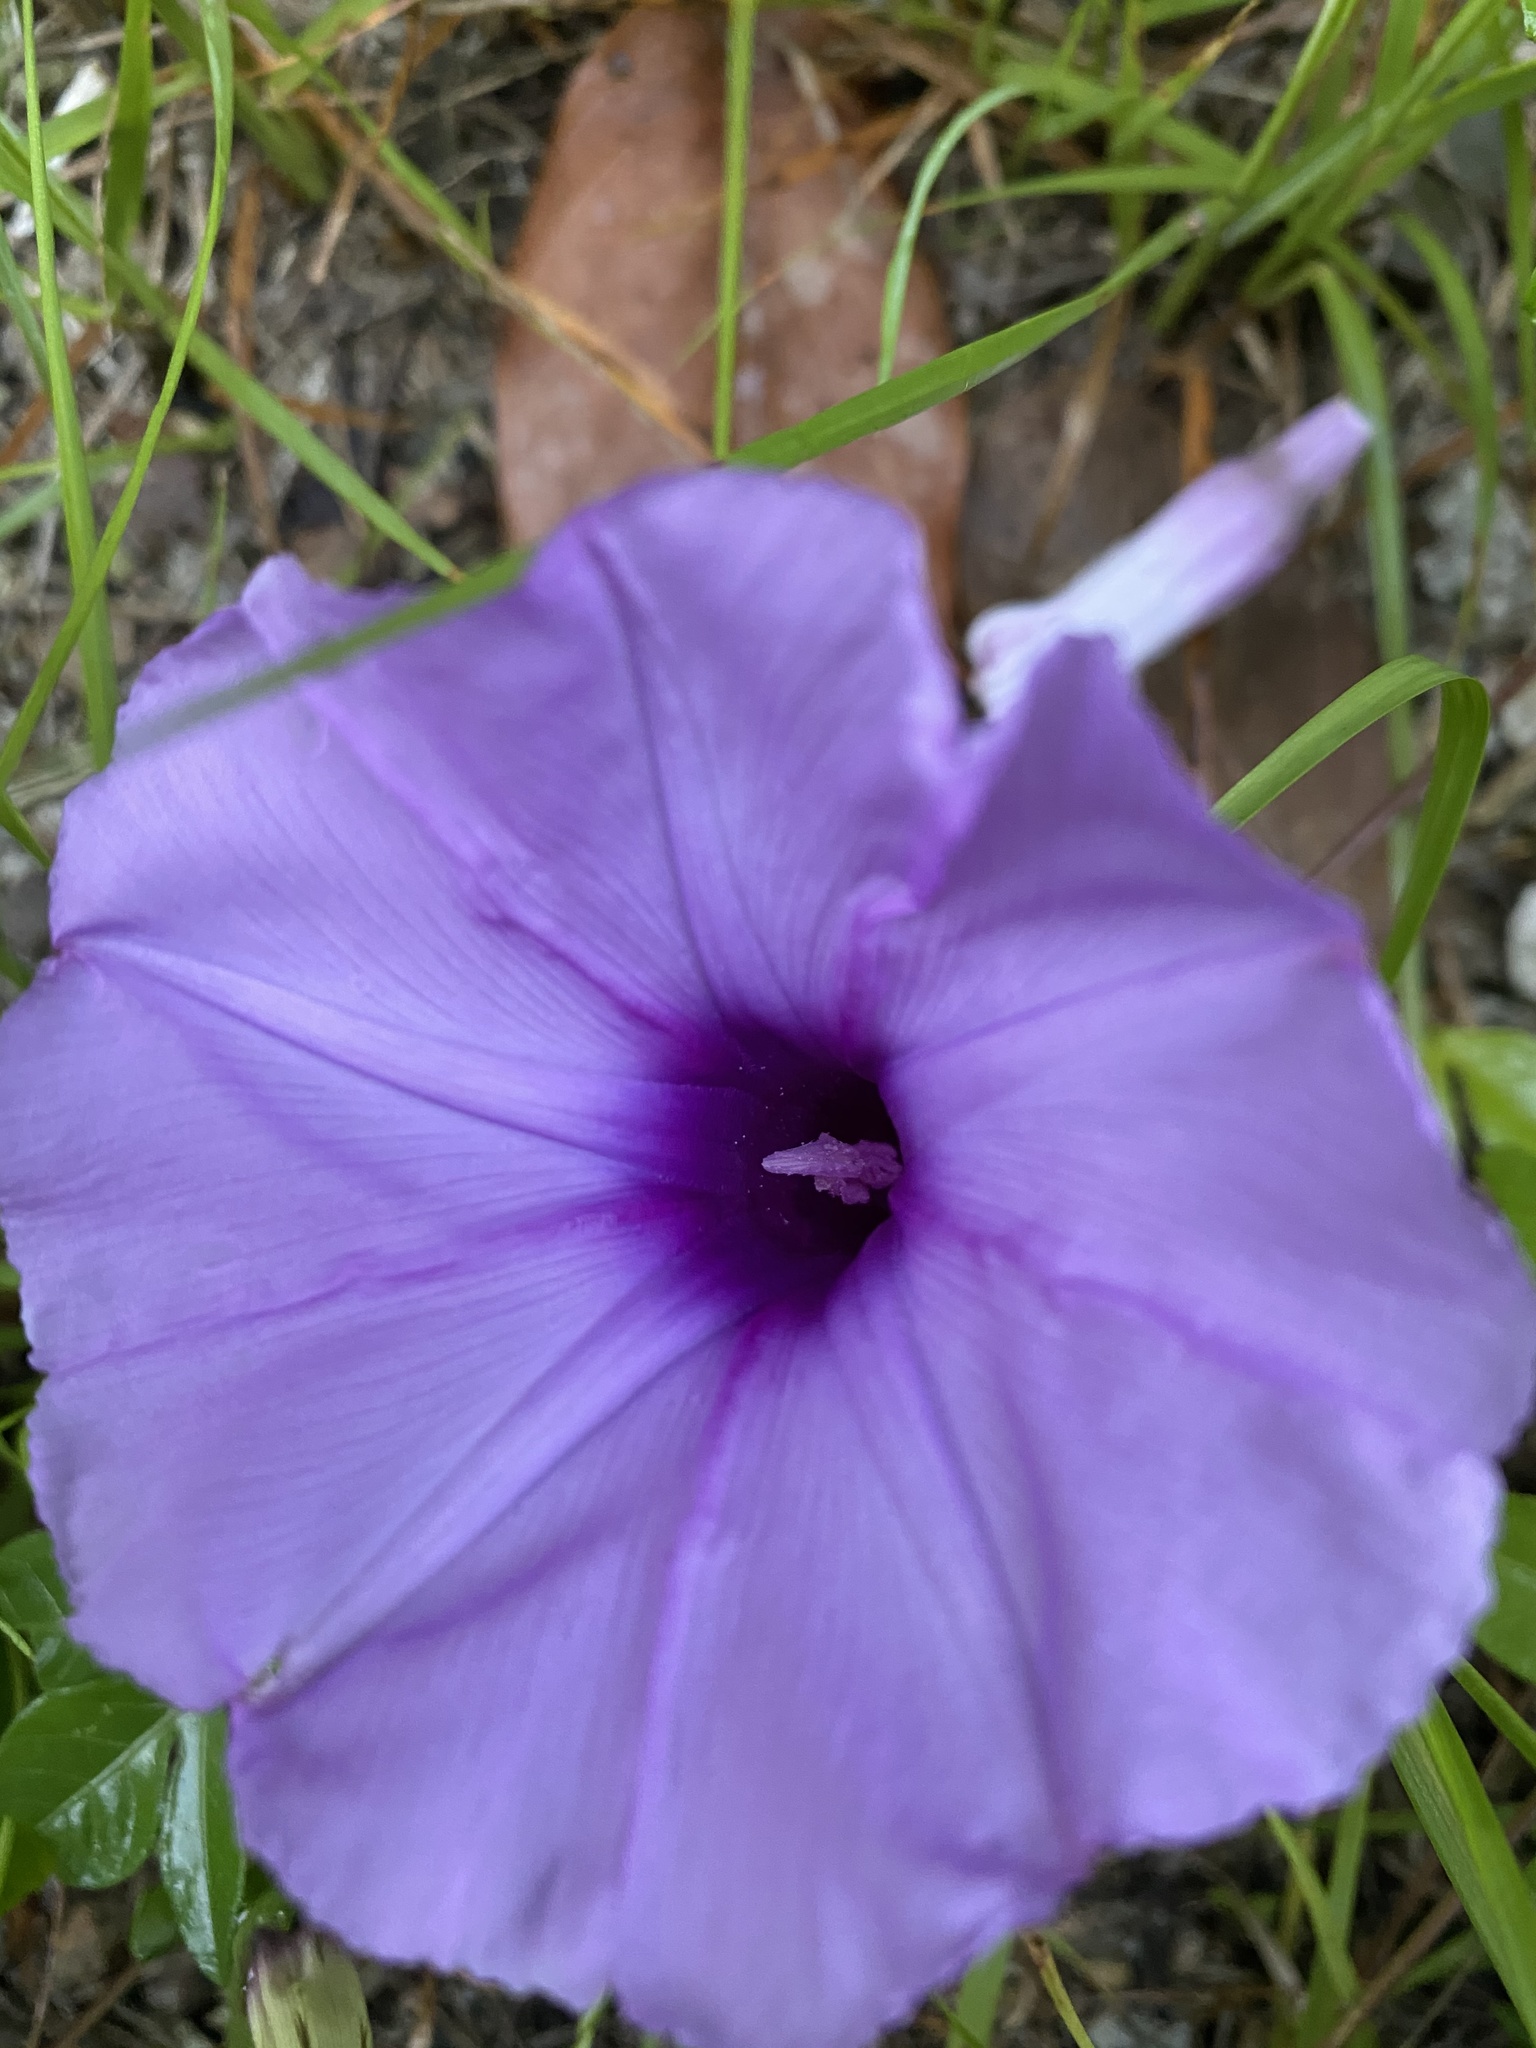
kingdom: Plantae
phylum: Tracheophyta
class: Magnoliopsida
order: Solanales
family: Convolvulaceae
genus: Ipomoea
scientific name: Ipomoea cairica
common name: Mile a minute vine
